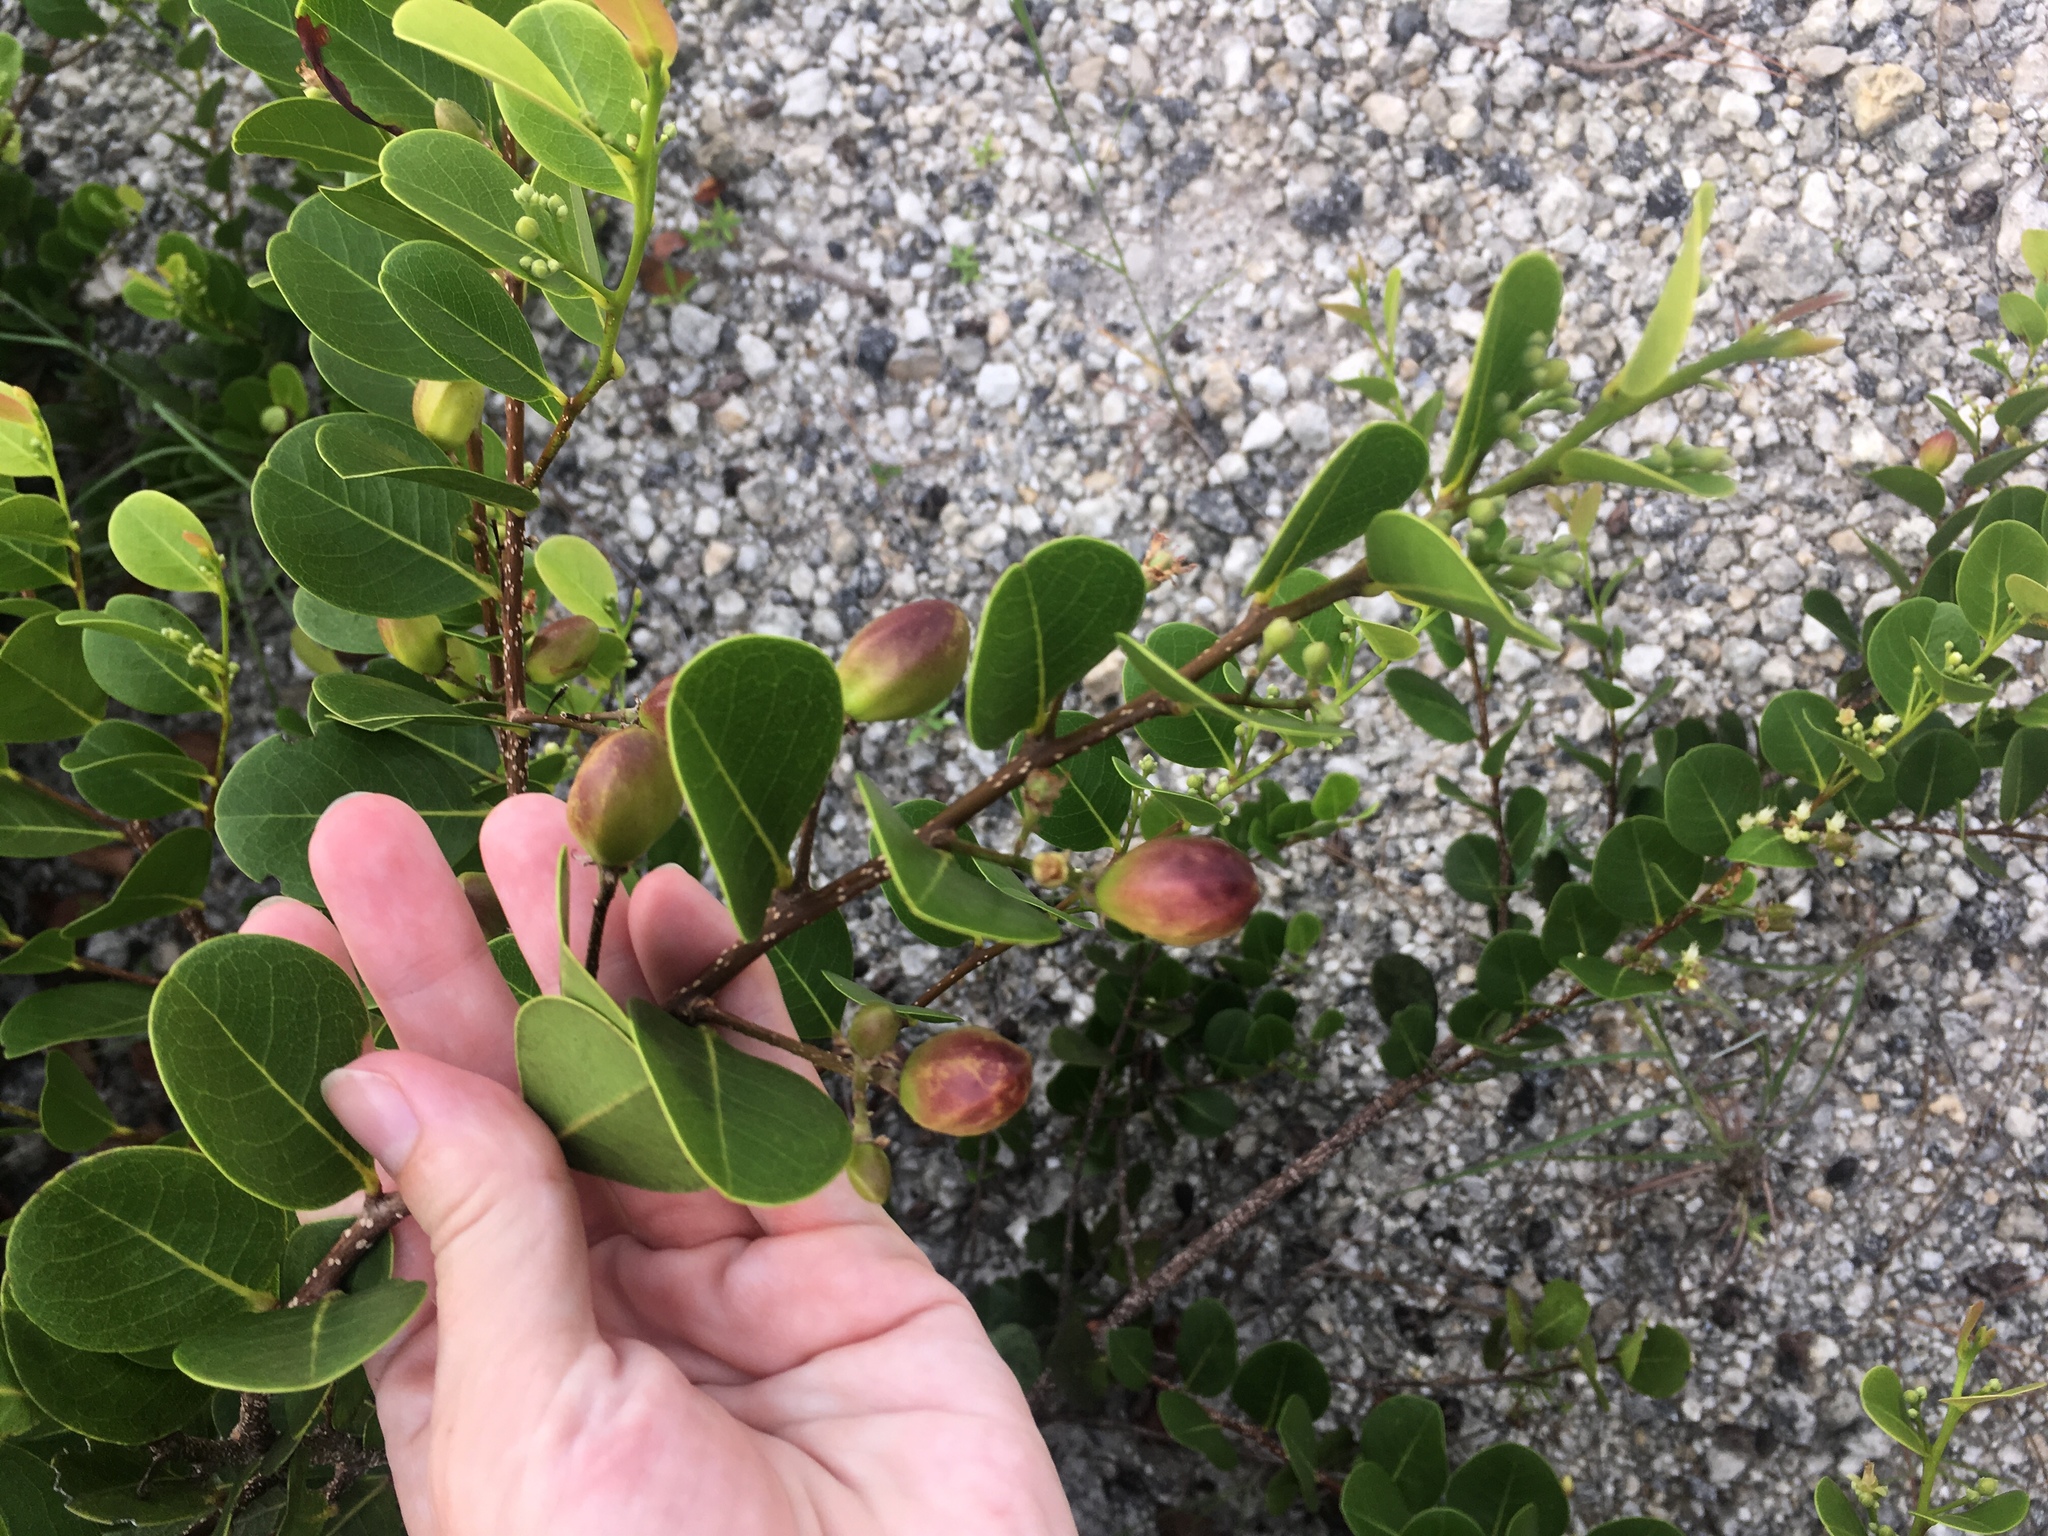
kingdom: Plantae
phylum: Tracheophyta
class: Magnoliopsida
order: Malpighiales
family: Chrysobalanaceae
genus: Chrysobalanus
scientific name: Chrysobalanus icaco
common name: Coco plum
